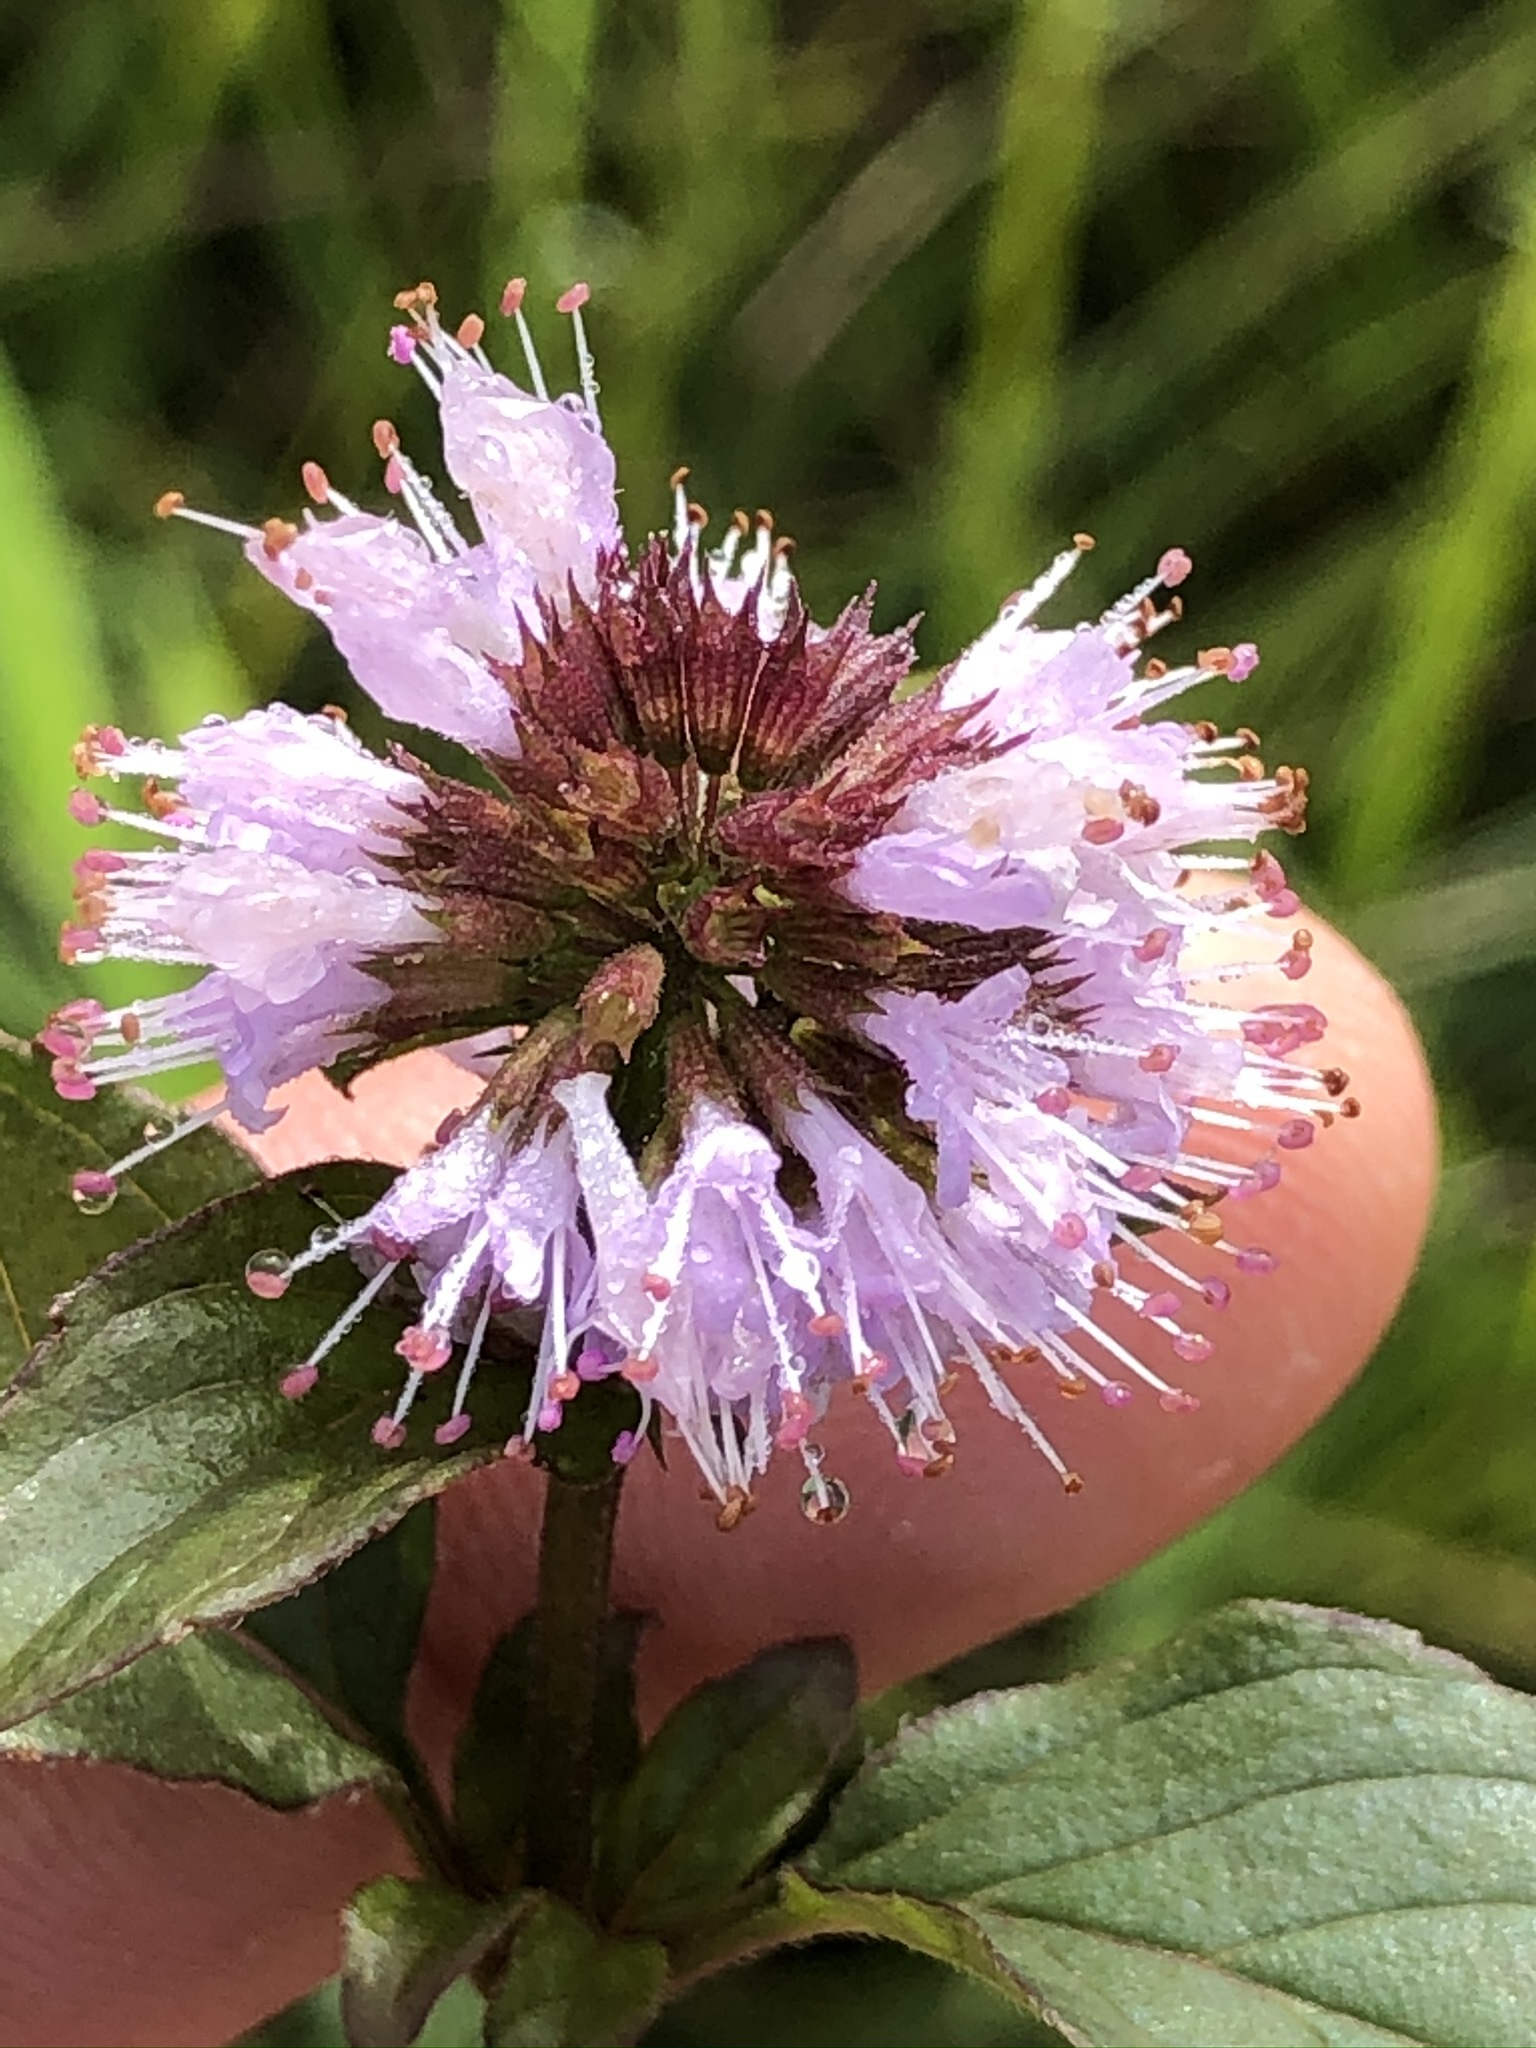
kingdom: Plantae
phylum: Tracheophyta
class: Magnoliopsida
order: Lamiales
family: Lamiaceae
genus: Mentha
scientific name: Mentha aquatica
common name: Water mint
